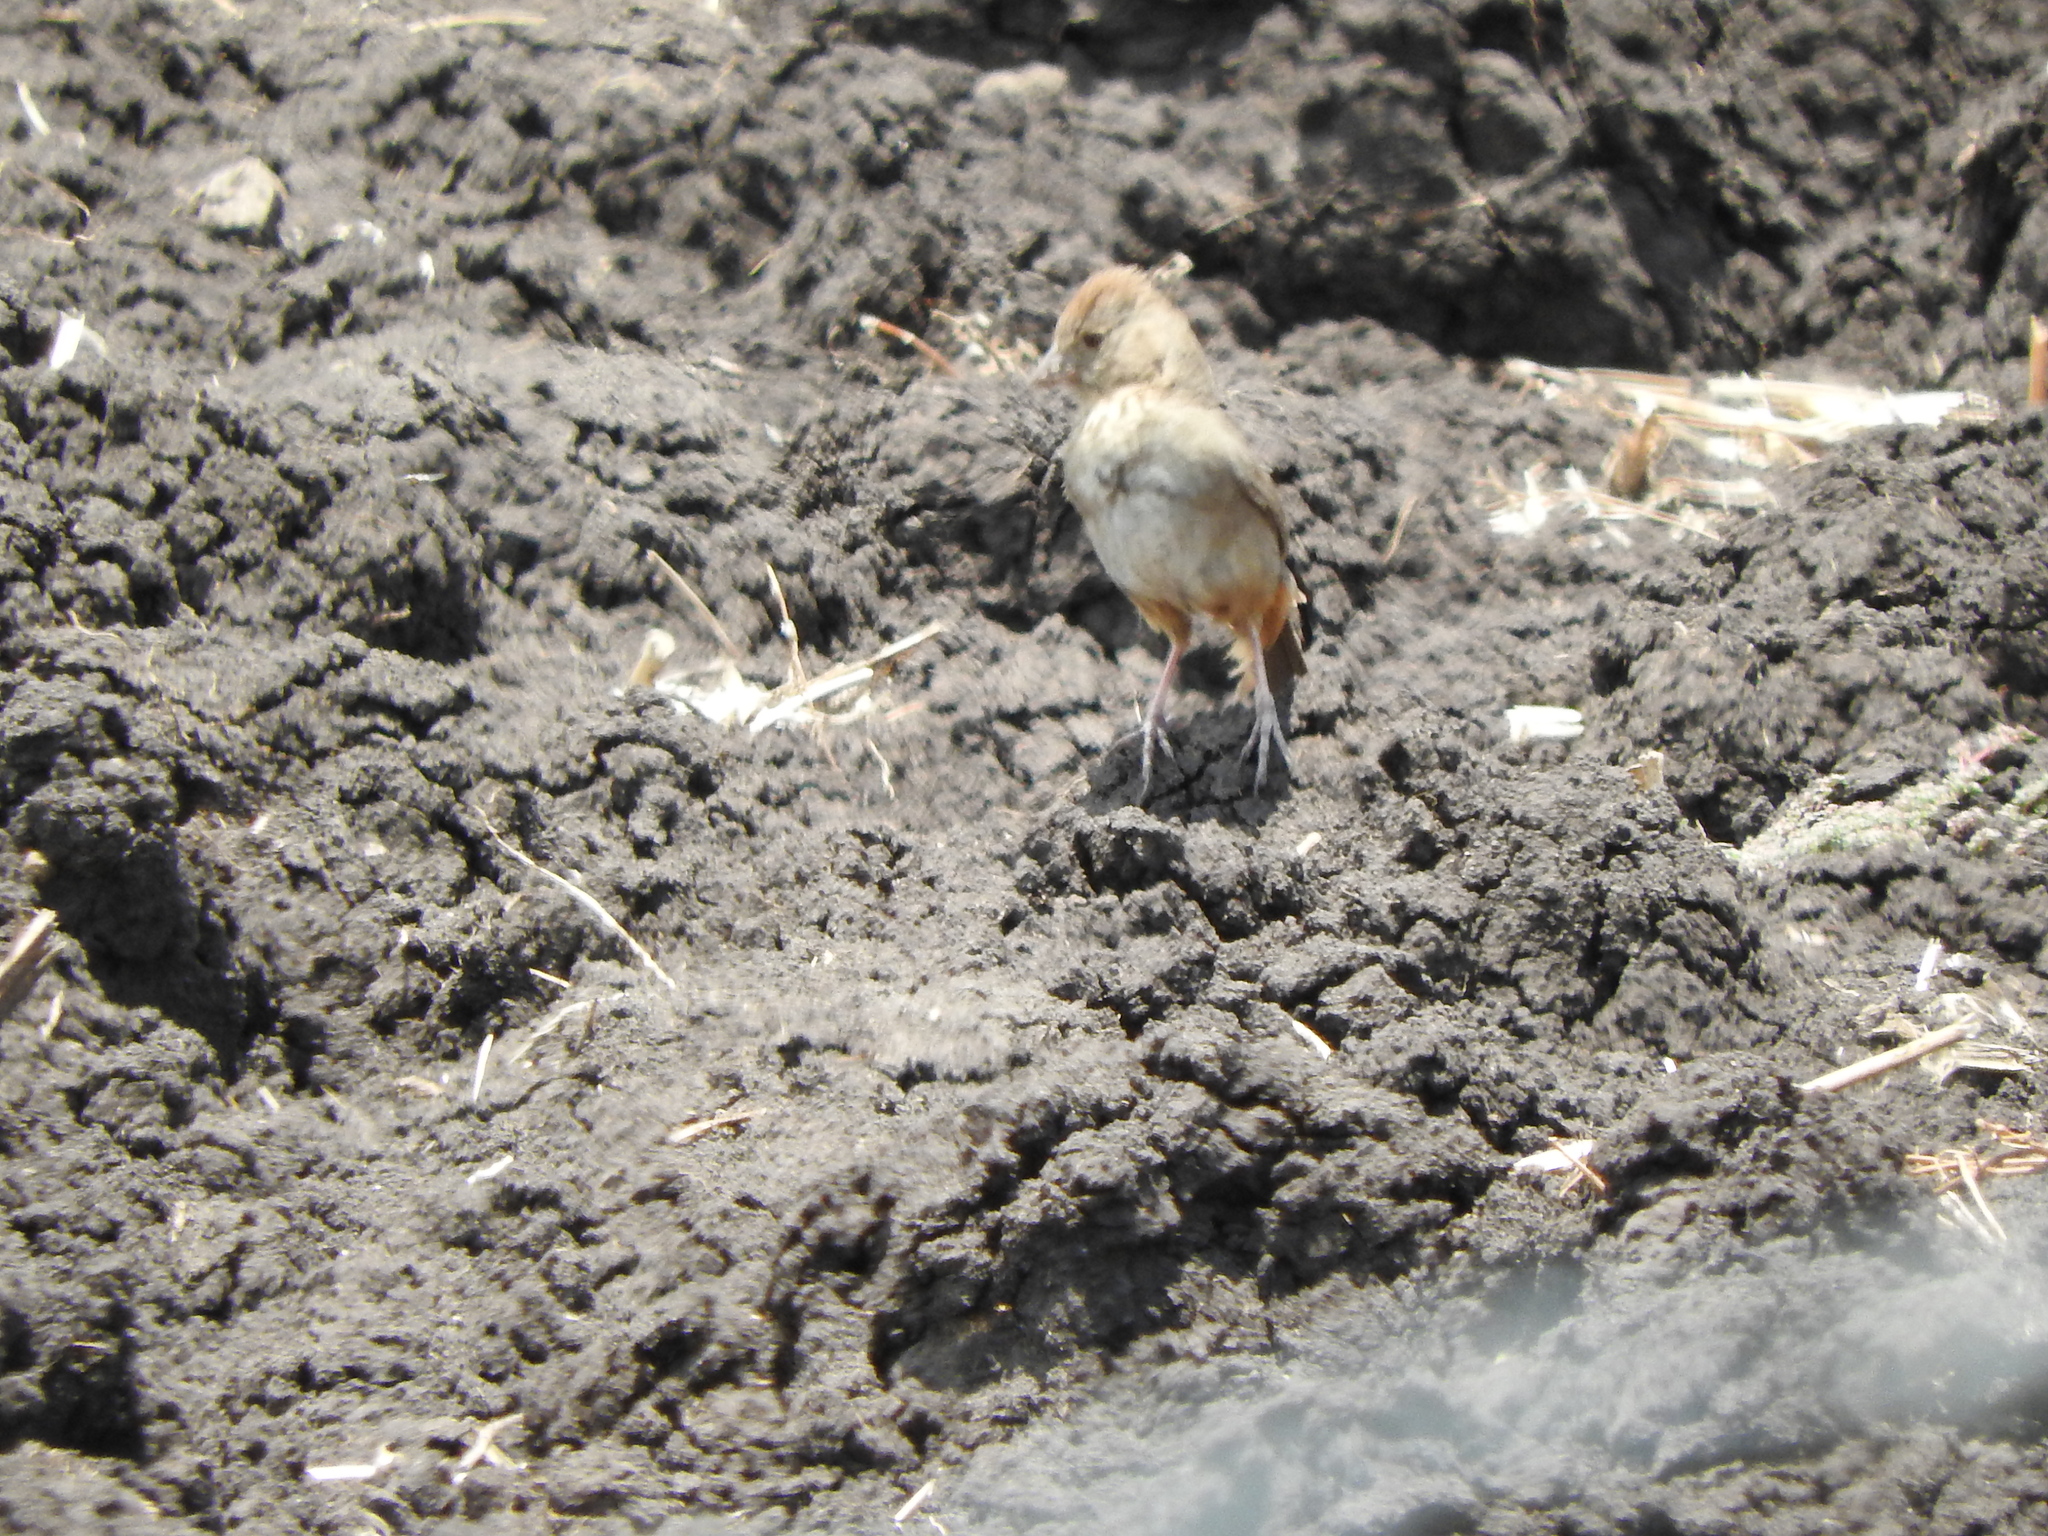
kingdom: Animalia
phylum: Chordata
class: Aves
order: Passeriformes
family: Passerellidae
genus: Melozone
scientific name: Melozone fusca
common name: Canyon towhee
